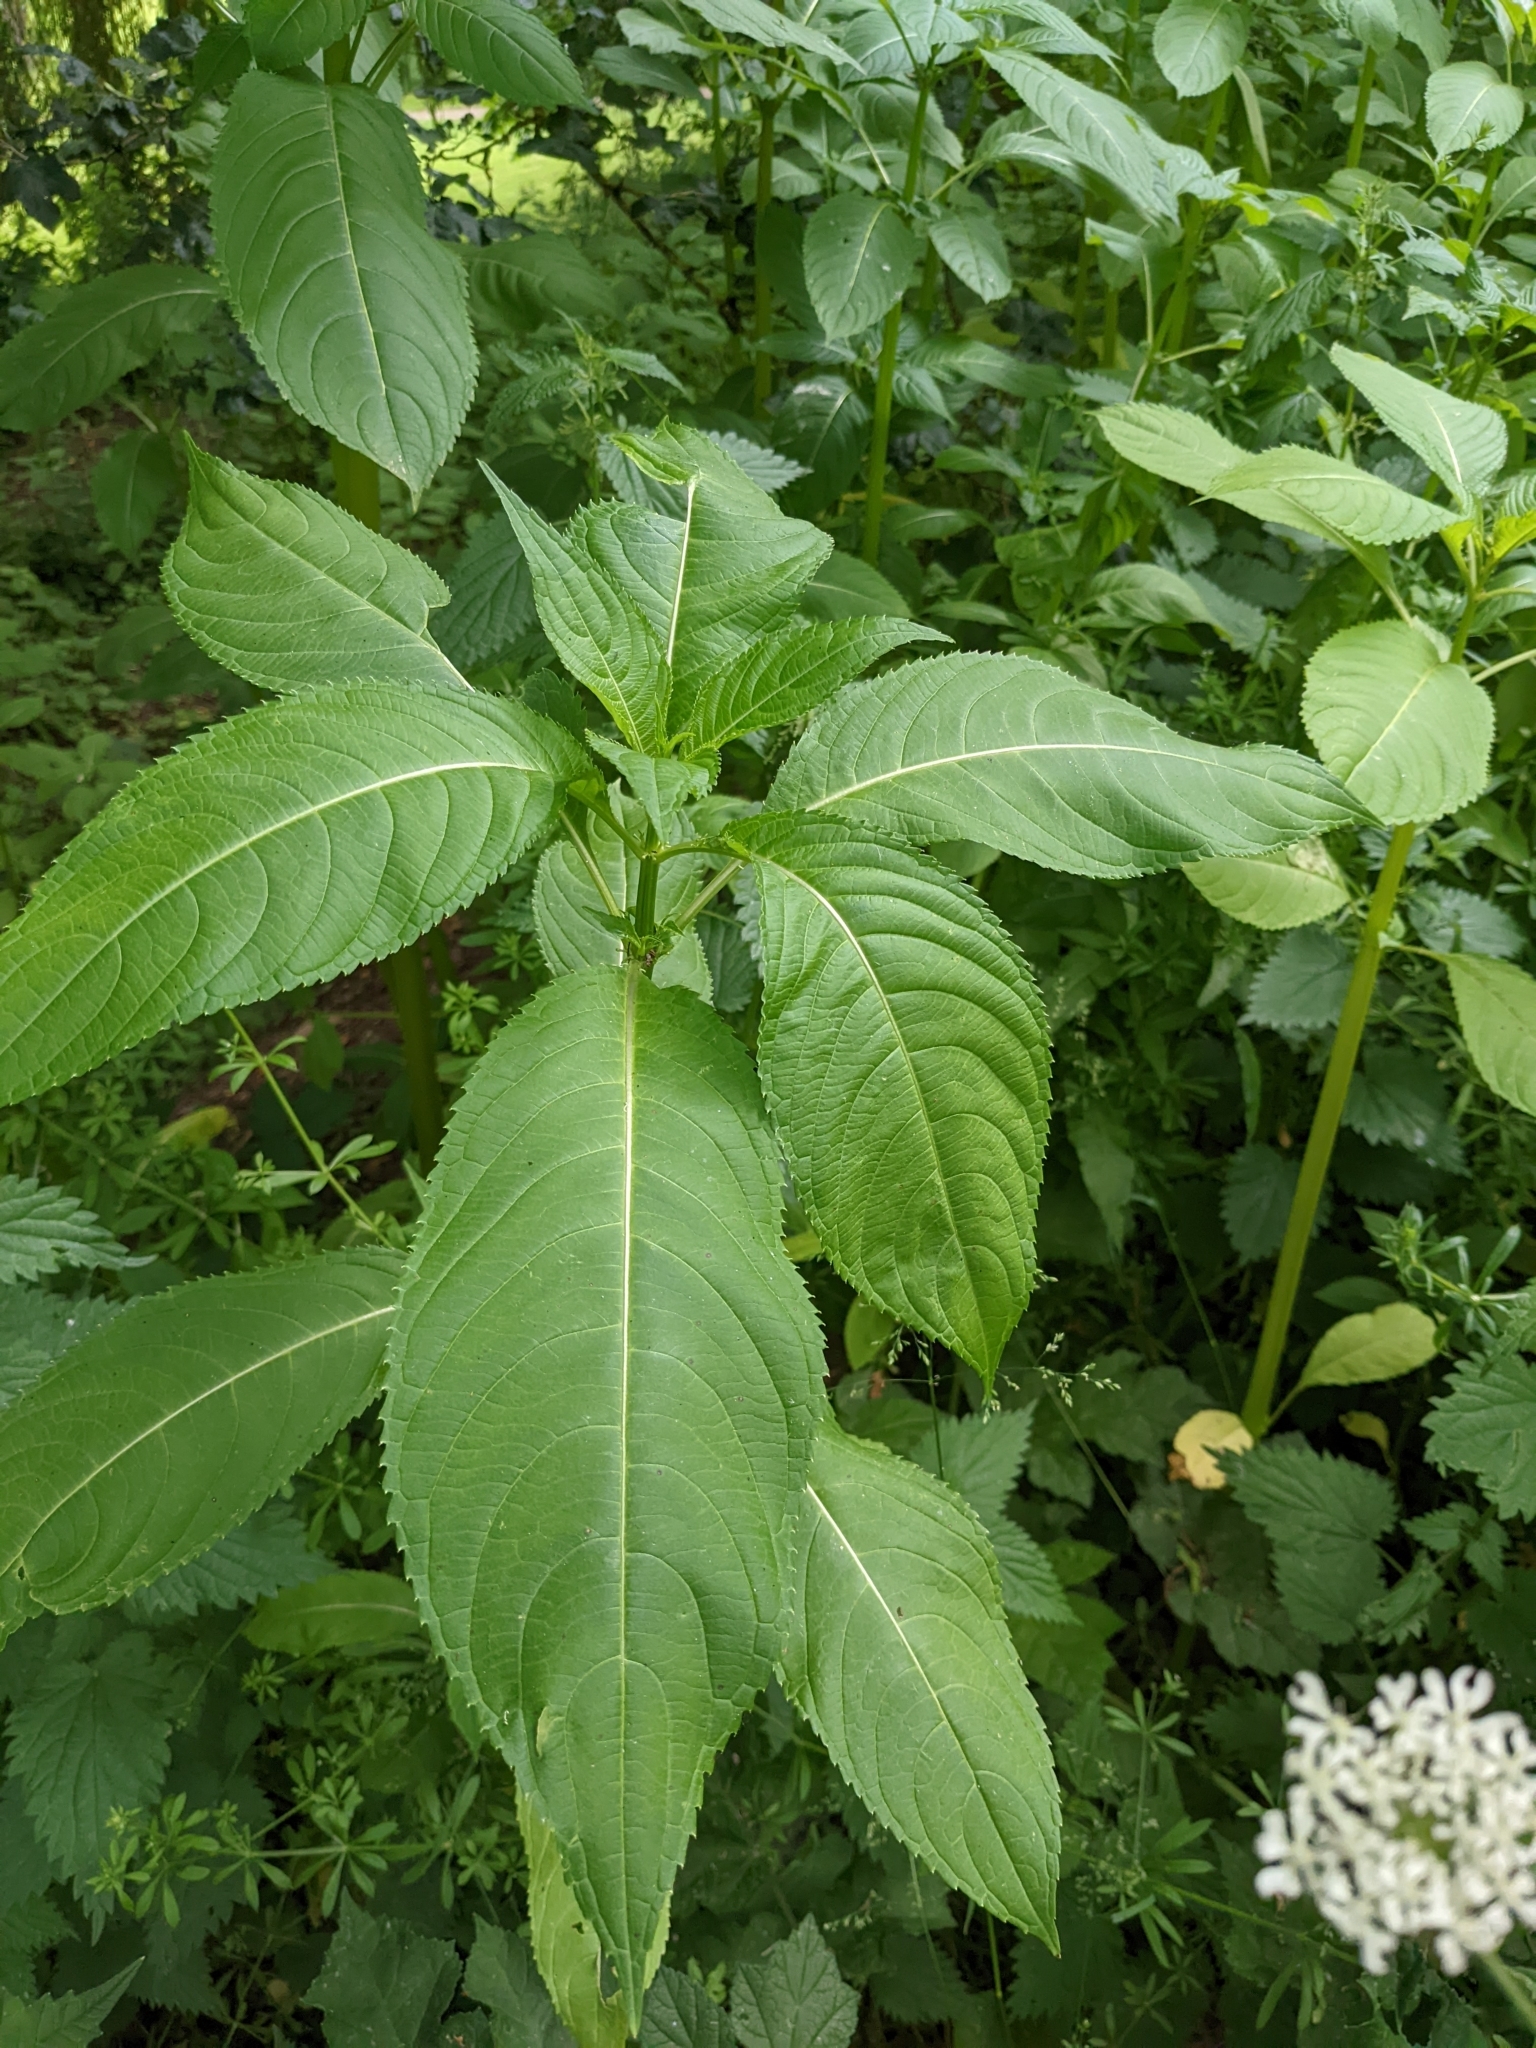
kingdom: Plantae
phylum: Tracheophyta
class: Magnoliopsida
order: Ericales
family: Balsaminaceae
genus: Impatiens
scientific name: Impatiens glandulifera
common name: Himalayan balsam
